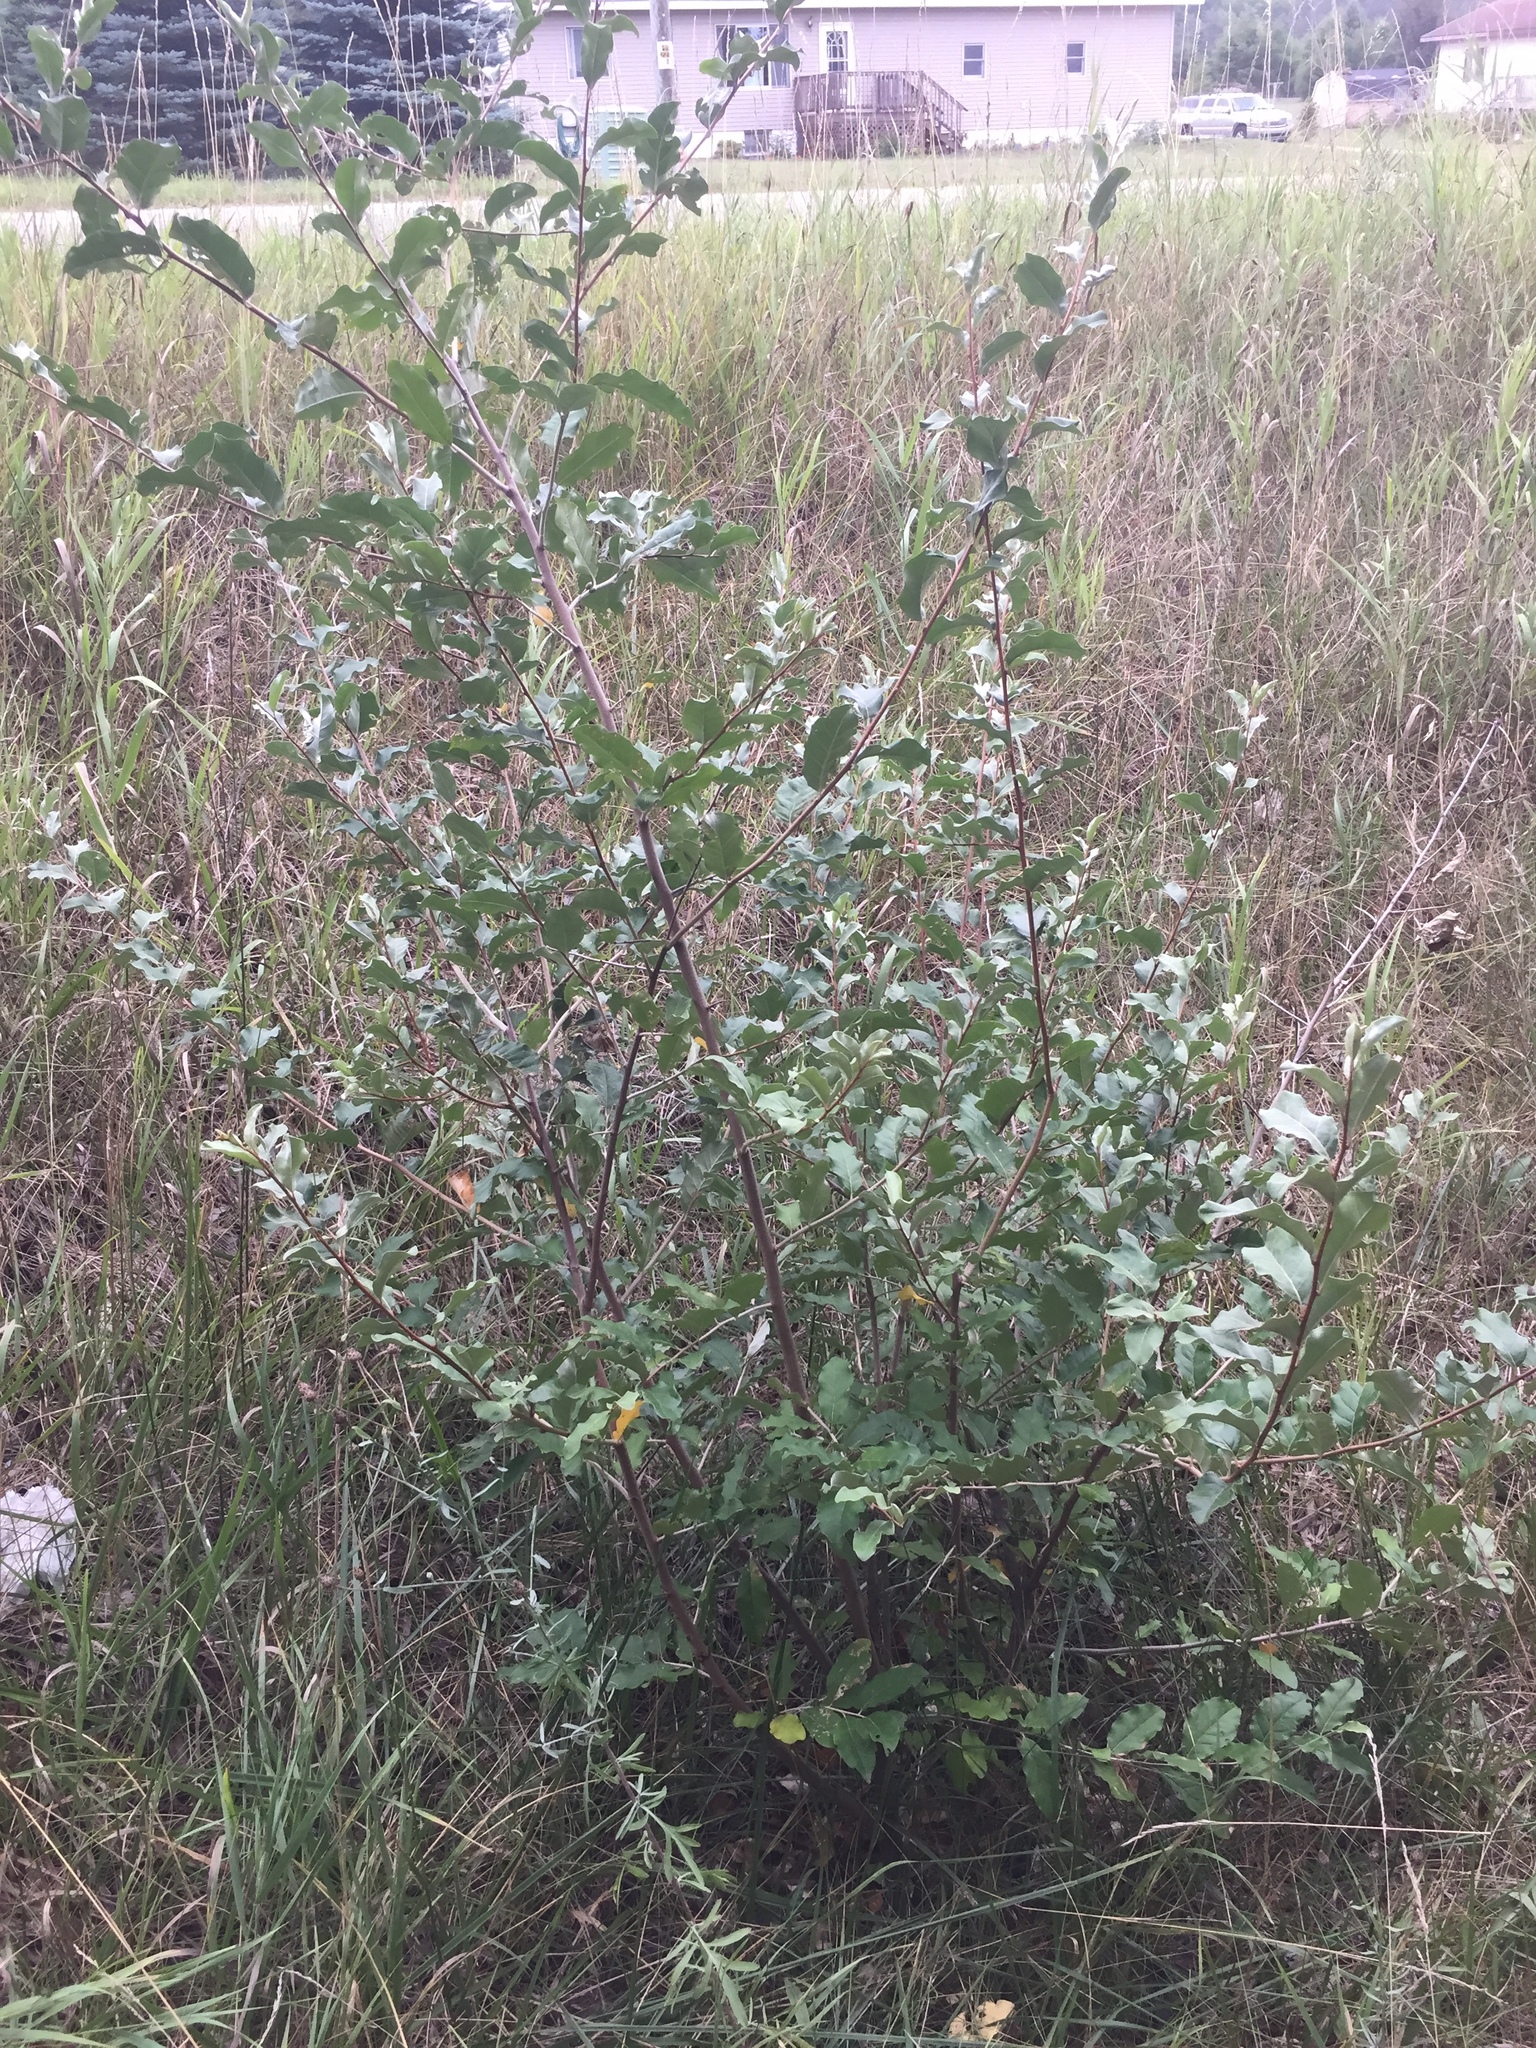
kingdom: Plantae
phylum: Tracheophyta
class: Magnoliopsida
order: Rosales
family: Elaeagnaceae
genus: Elaeagnus
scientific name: Elaeagnus umbellata
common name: Autumn olive
